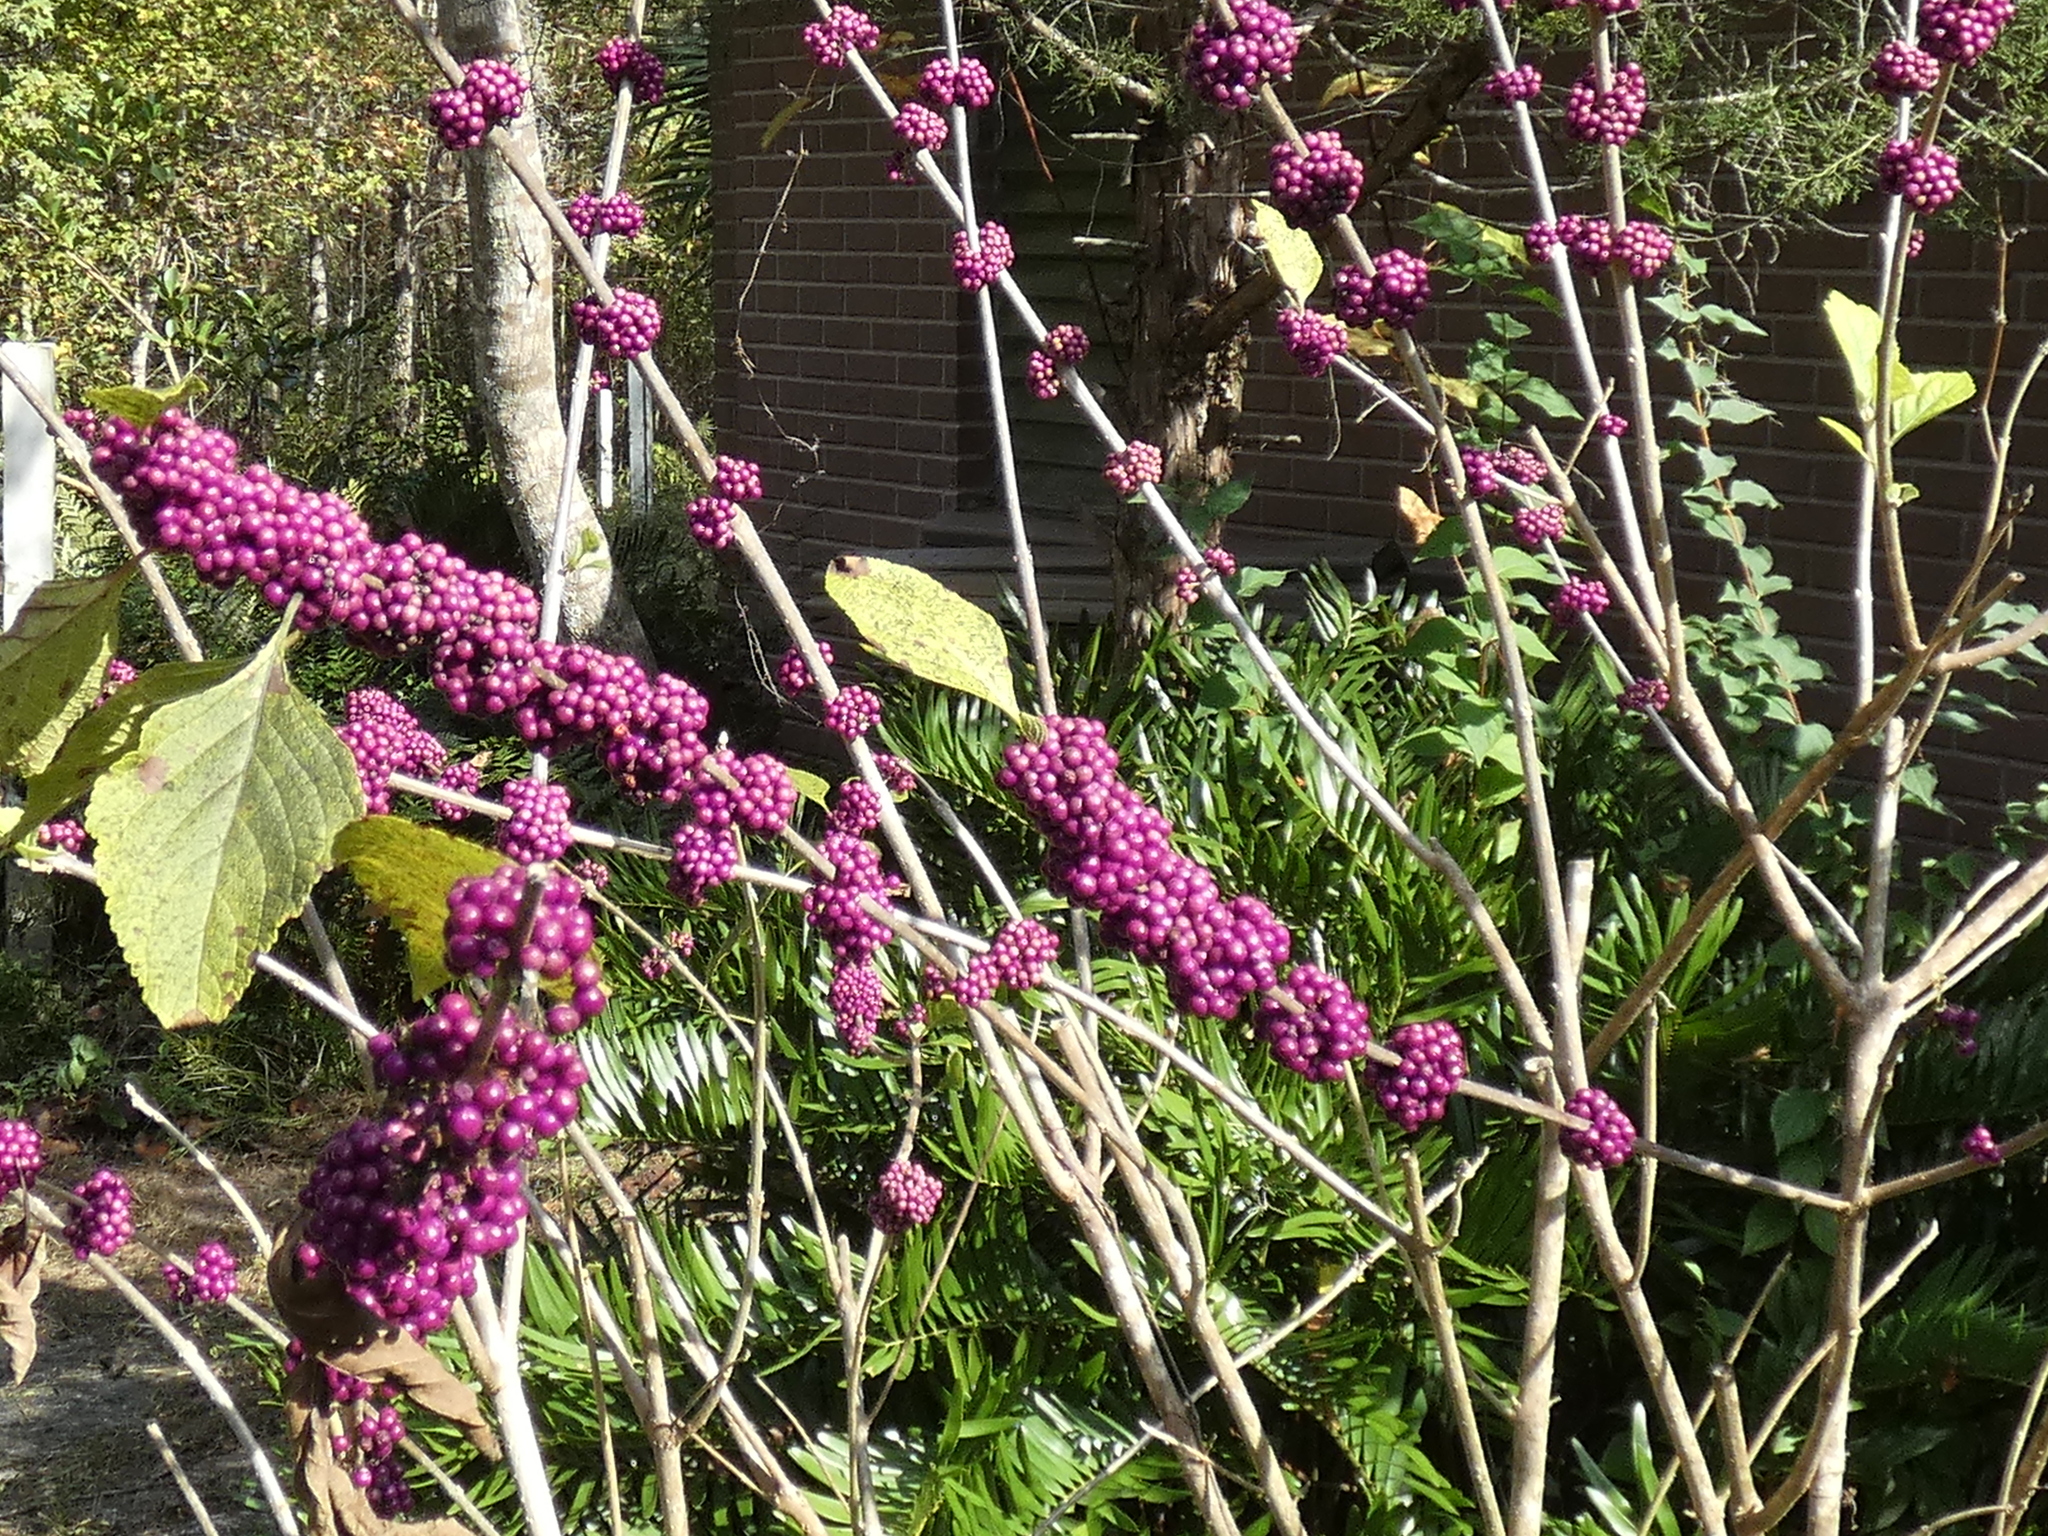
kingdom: Plantae
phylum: Tracheophyta
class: Magnoliopsida
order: Lamiales
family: Lamiaceae
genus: Callicarpa
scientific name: Callicarpa americana
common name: American beautyberry
